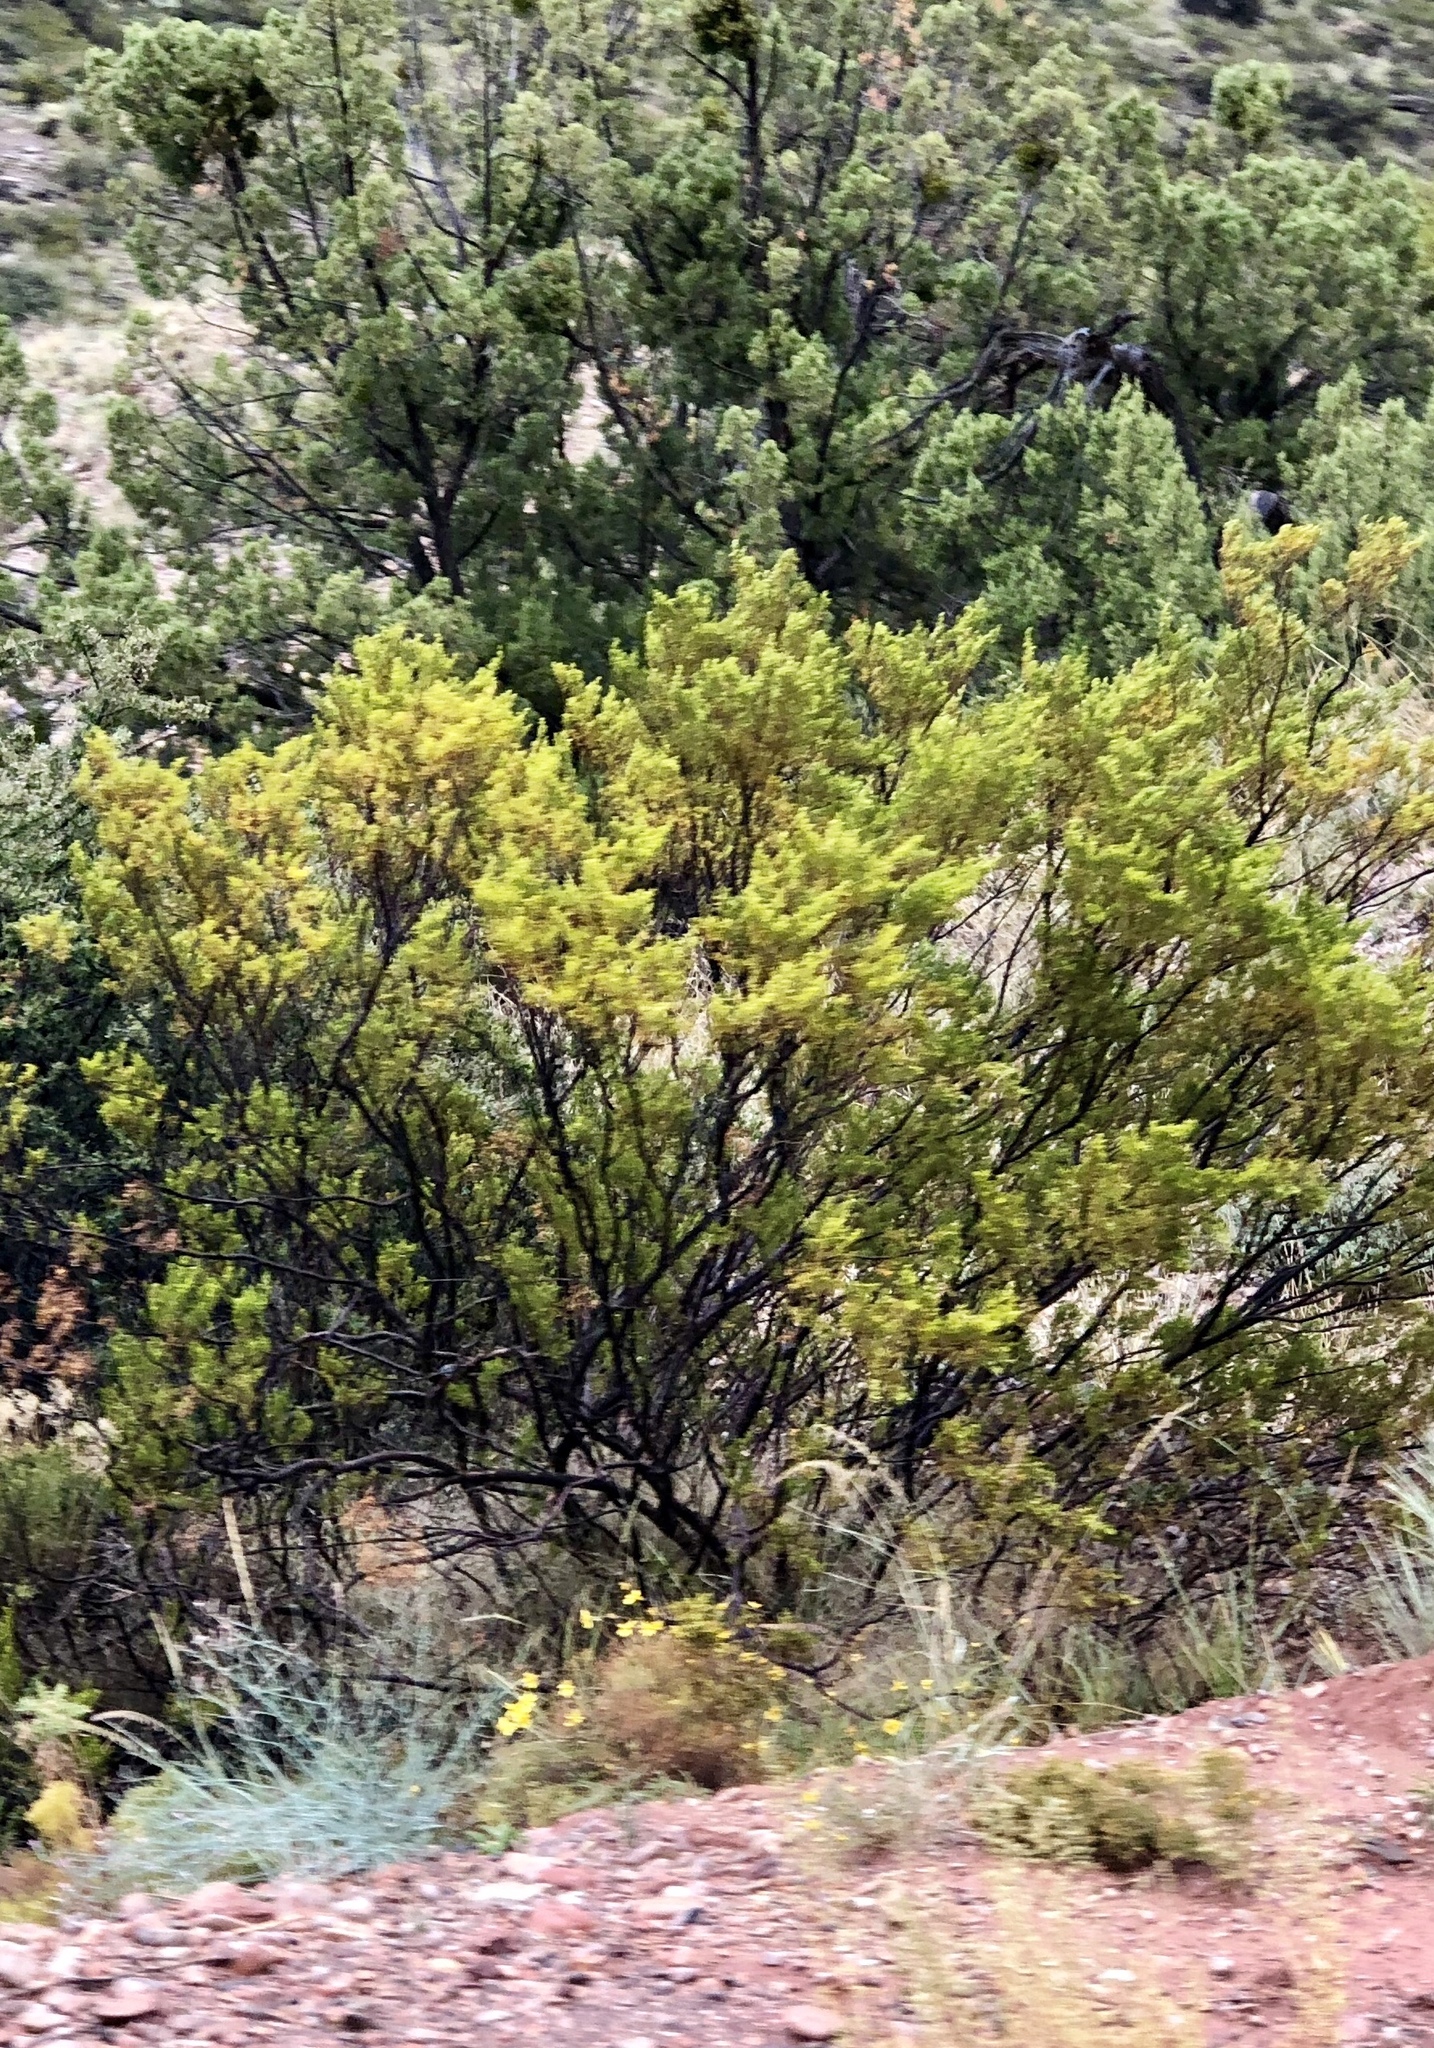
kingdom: Plantae
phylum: Tracheophyta
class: Magnoliopsida
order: Zygophyllales
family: Zygophyllaceae
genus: Larrea
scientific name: Larrea tridentata
